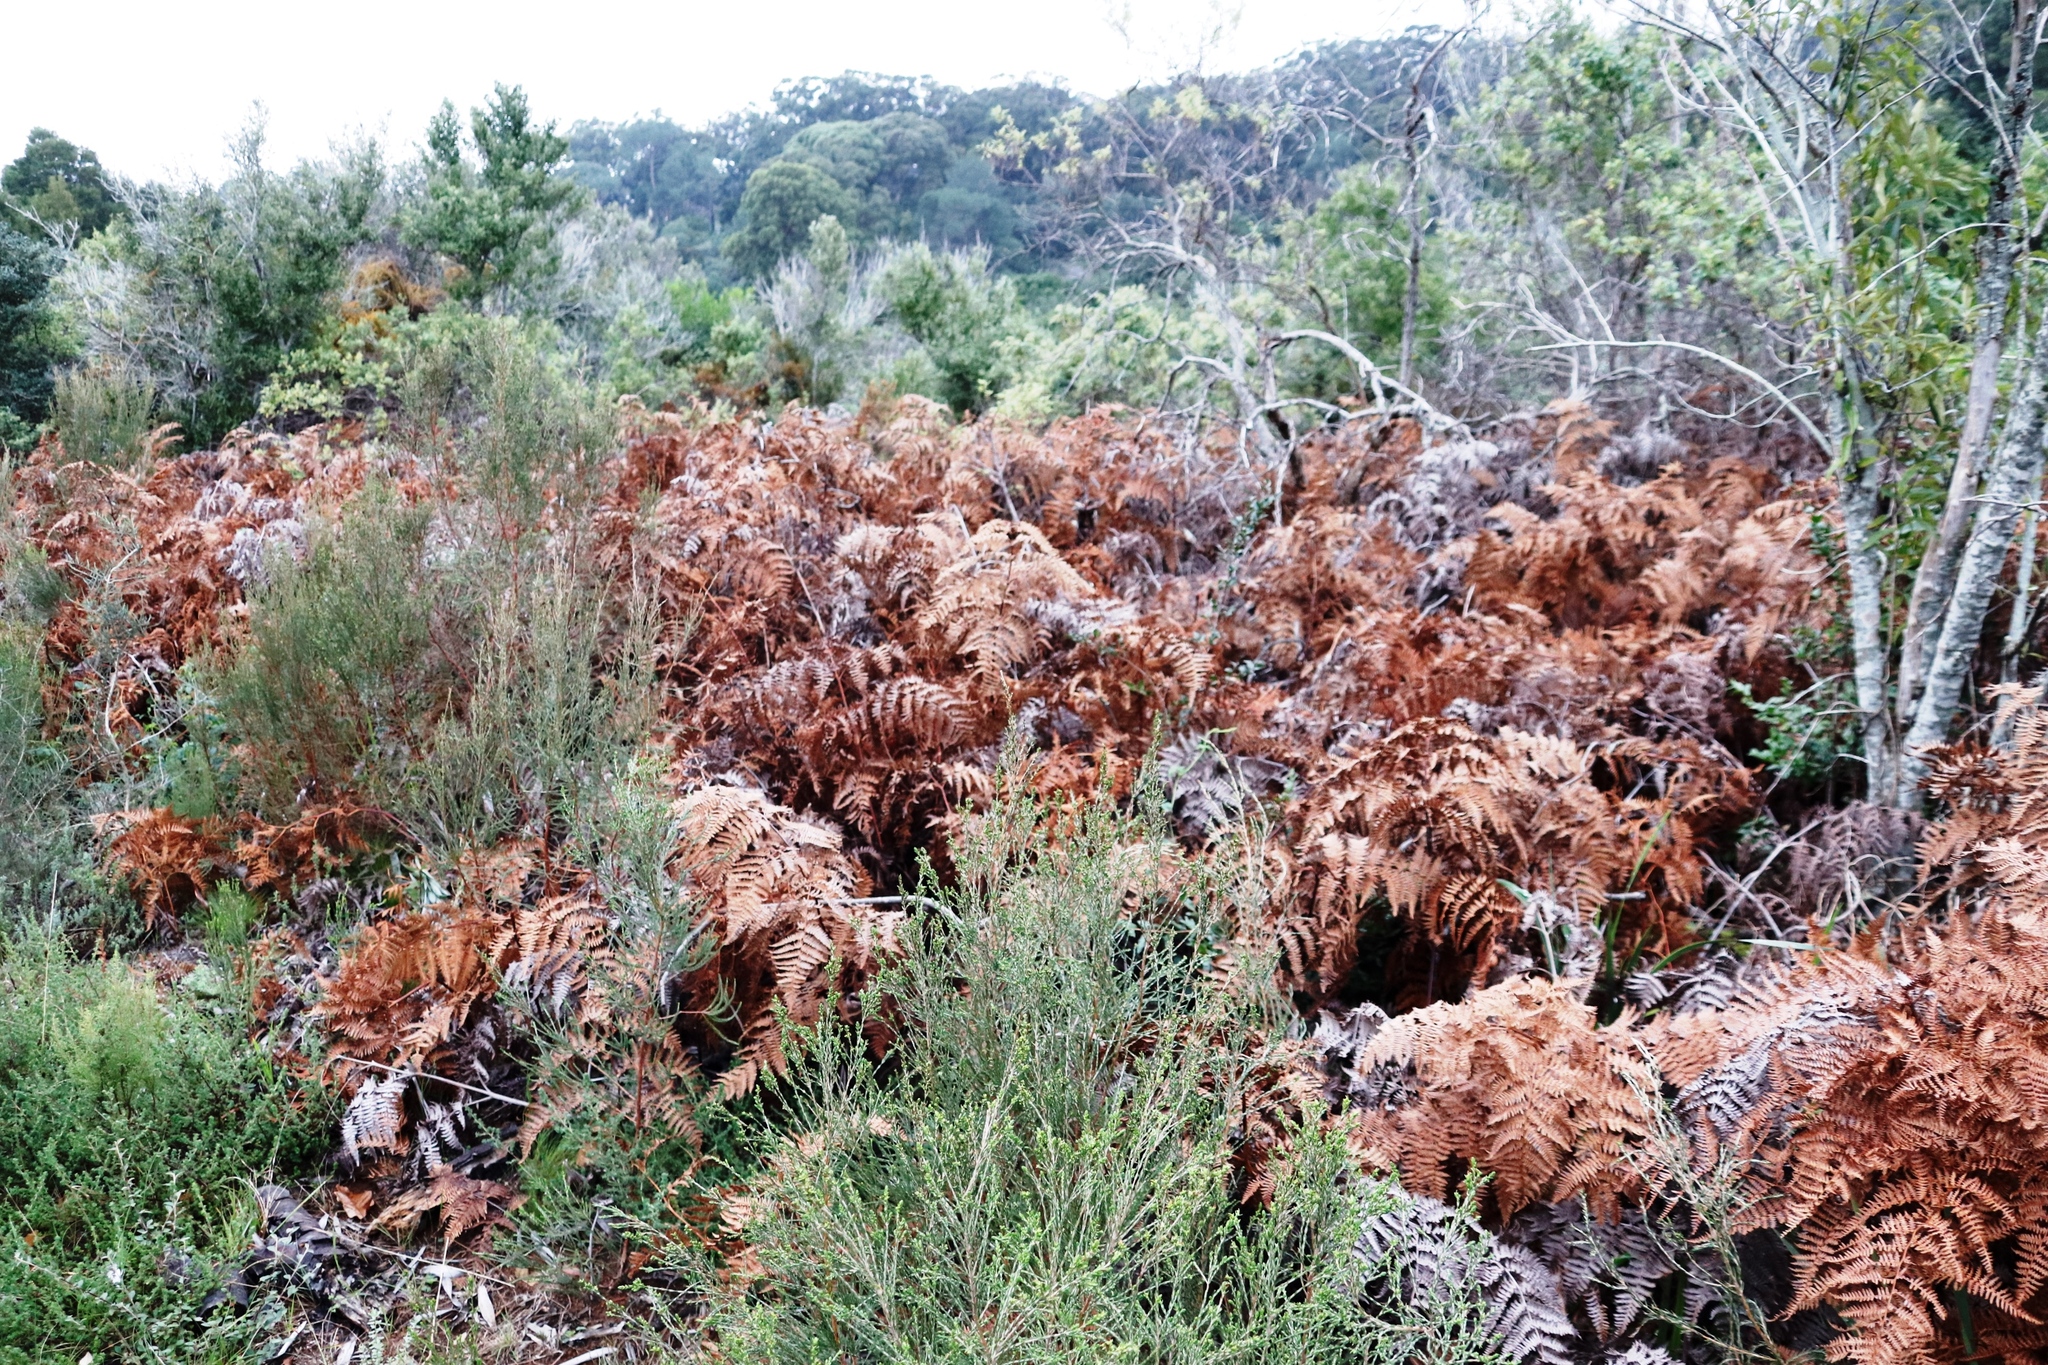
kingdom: Plantae
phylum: Tracheophyta
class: Polypodiopsida
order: Polypodiales
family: Dennstaedtiaceae
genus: Pteridium
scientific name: Pteridium aquilinum
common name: Bracken
